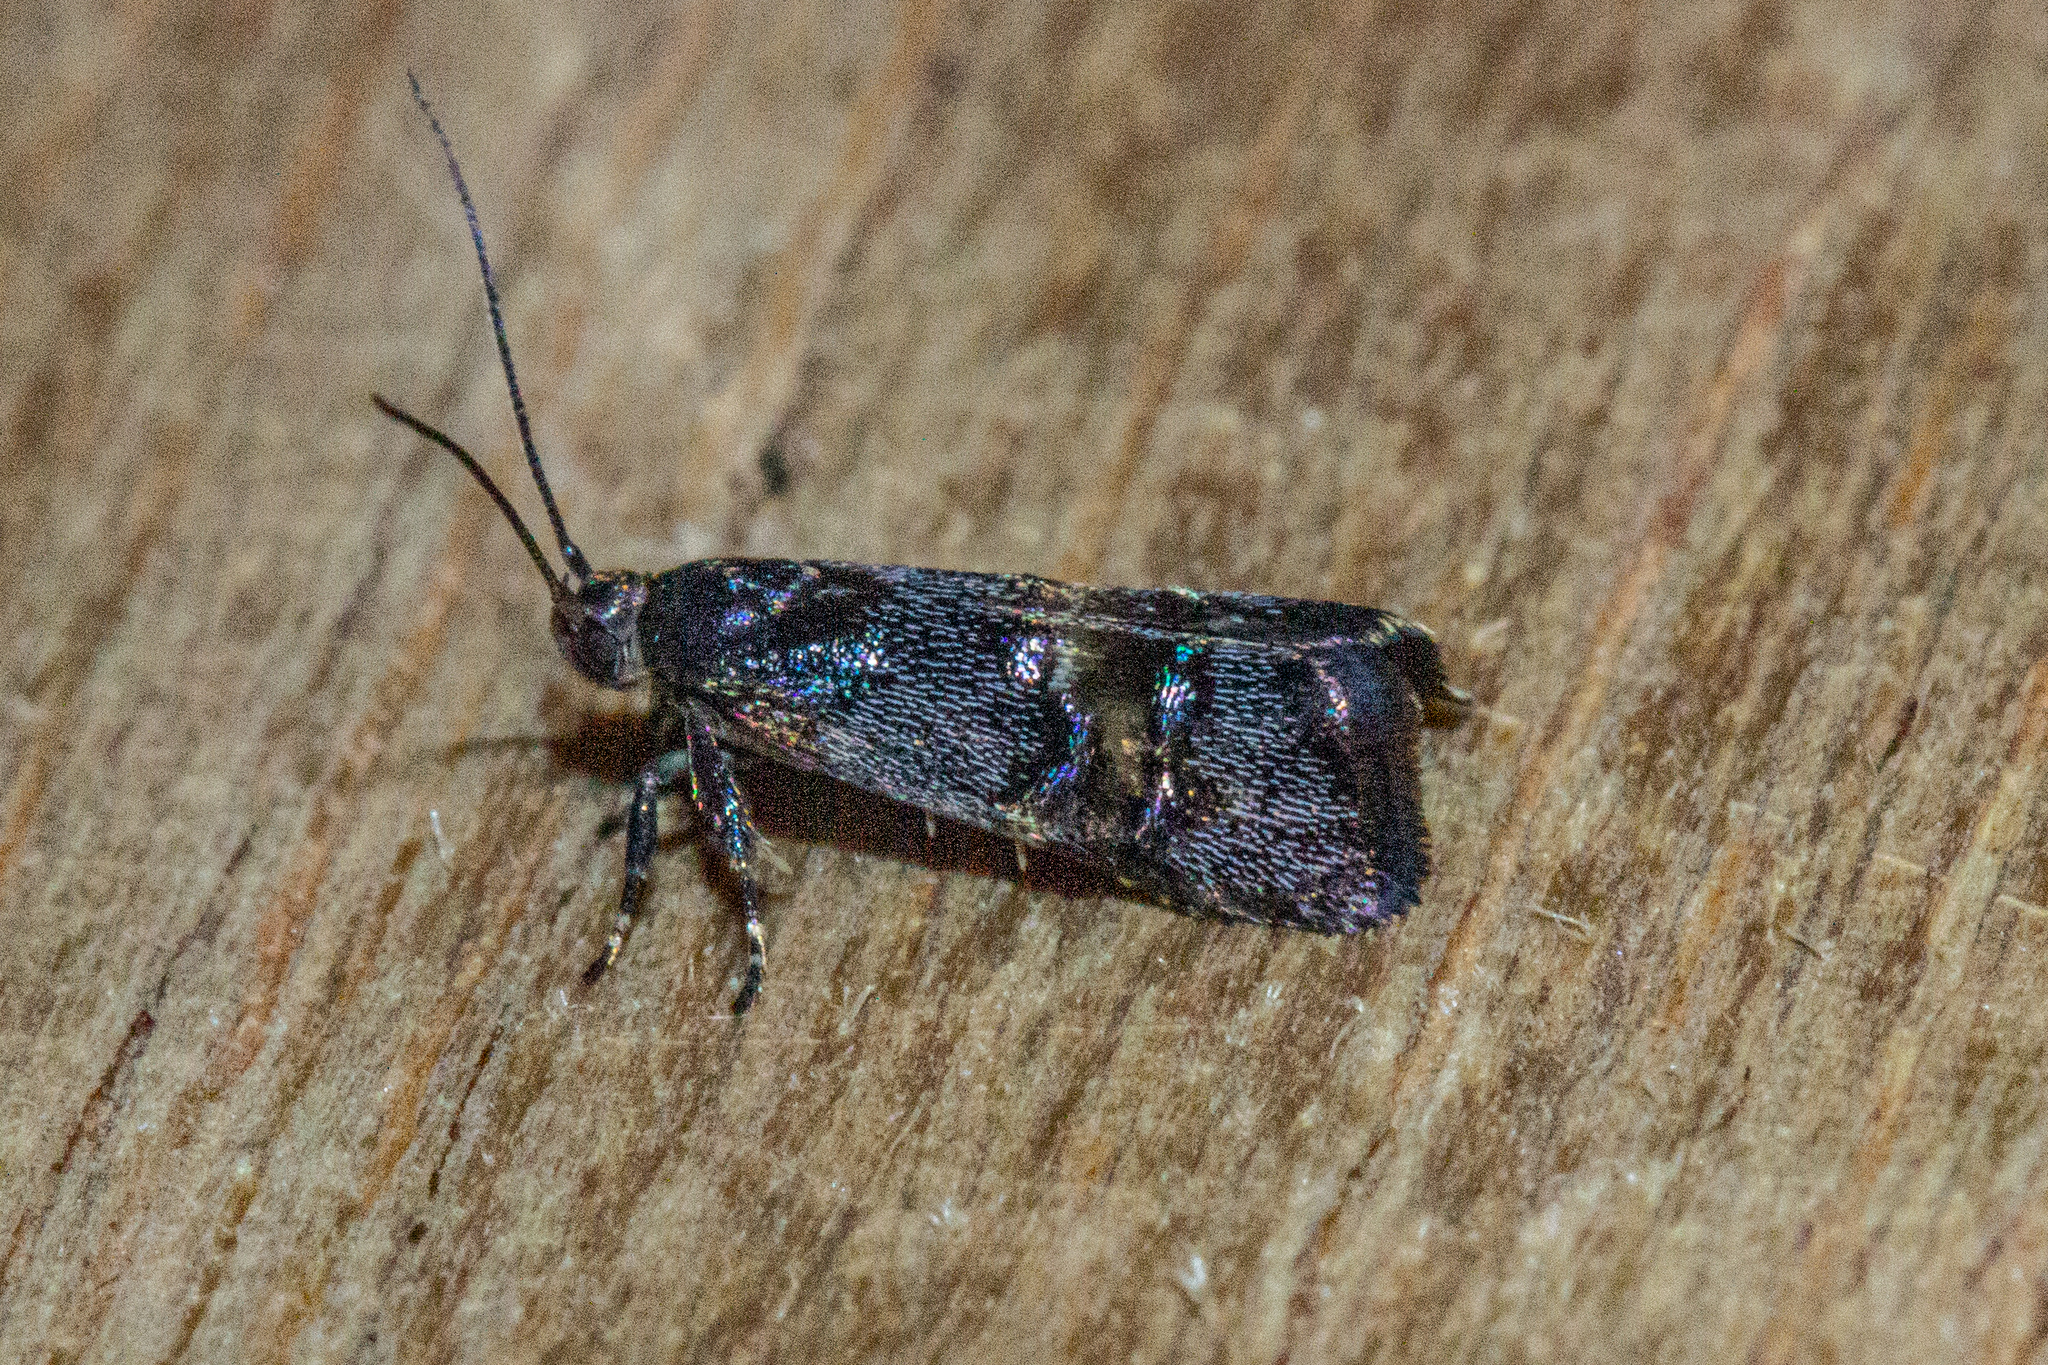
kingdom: Animalia
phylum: Arthropoda
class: Insecta
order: Lepidoptera
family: Oecophoridae
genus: Hierodoris
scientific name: Hierodoris torrida
